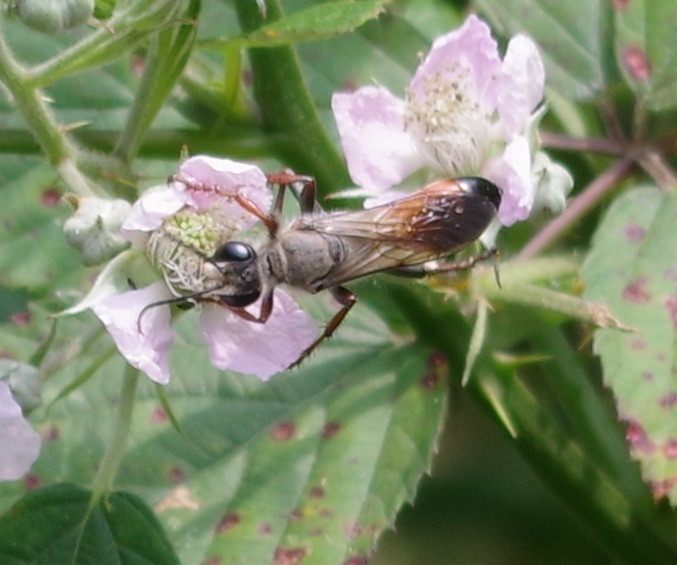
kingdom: Animalia
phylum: Arthropoda
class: Insecta
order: Hymenoptera
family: Sphecidae
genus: Sphex
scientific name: Sphex funerarius
